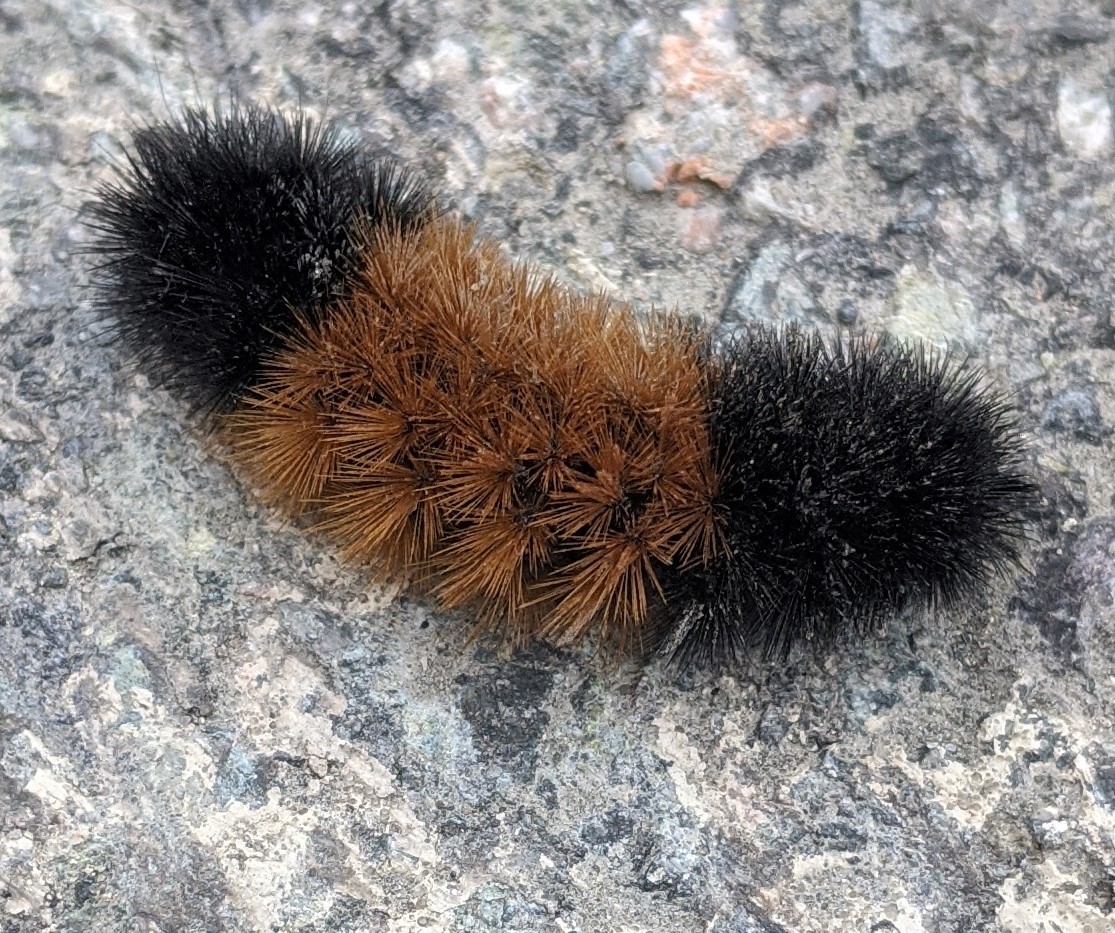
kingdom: Animalia
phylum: Arthropoda
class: Insecta
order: Lepidoptera
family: Erebidae
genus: Pyrrharctia
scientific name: Pyrrharctia isabella
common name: Isabella tiger moth
